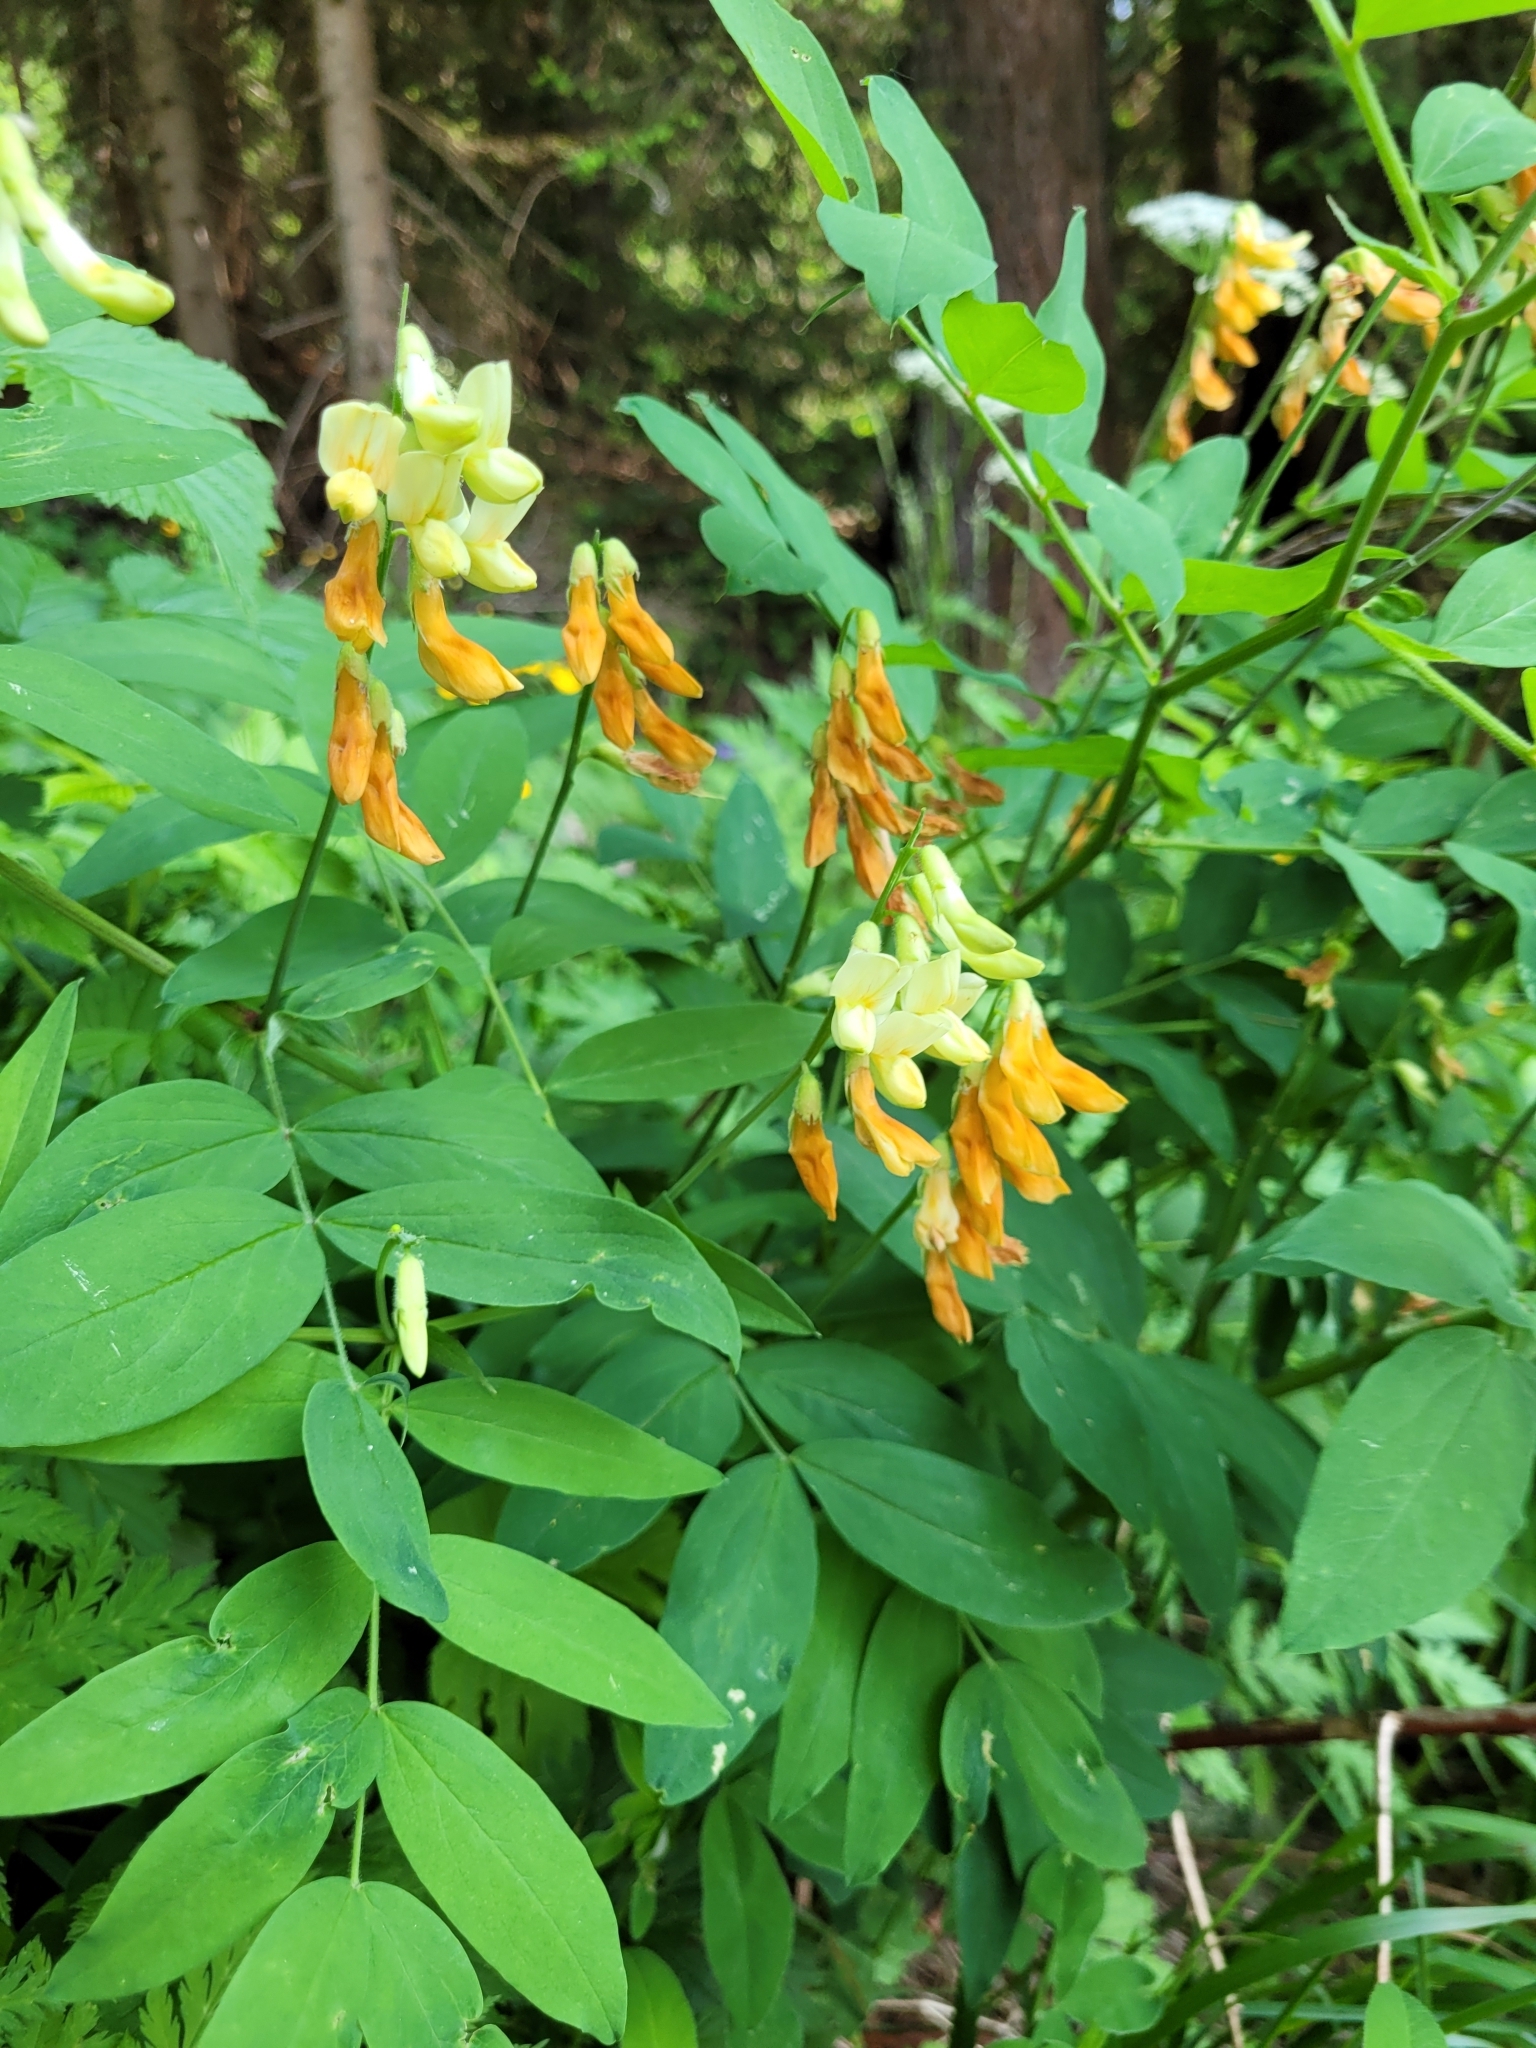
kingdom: Plantae
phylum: Tracheophyta
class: Magnoliopsida
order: Fabales
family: Fabaceae
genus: Lathyrus
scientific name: Lathyrus laevigatus
